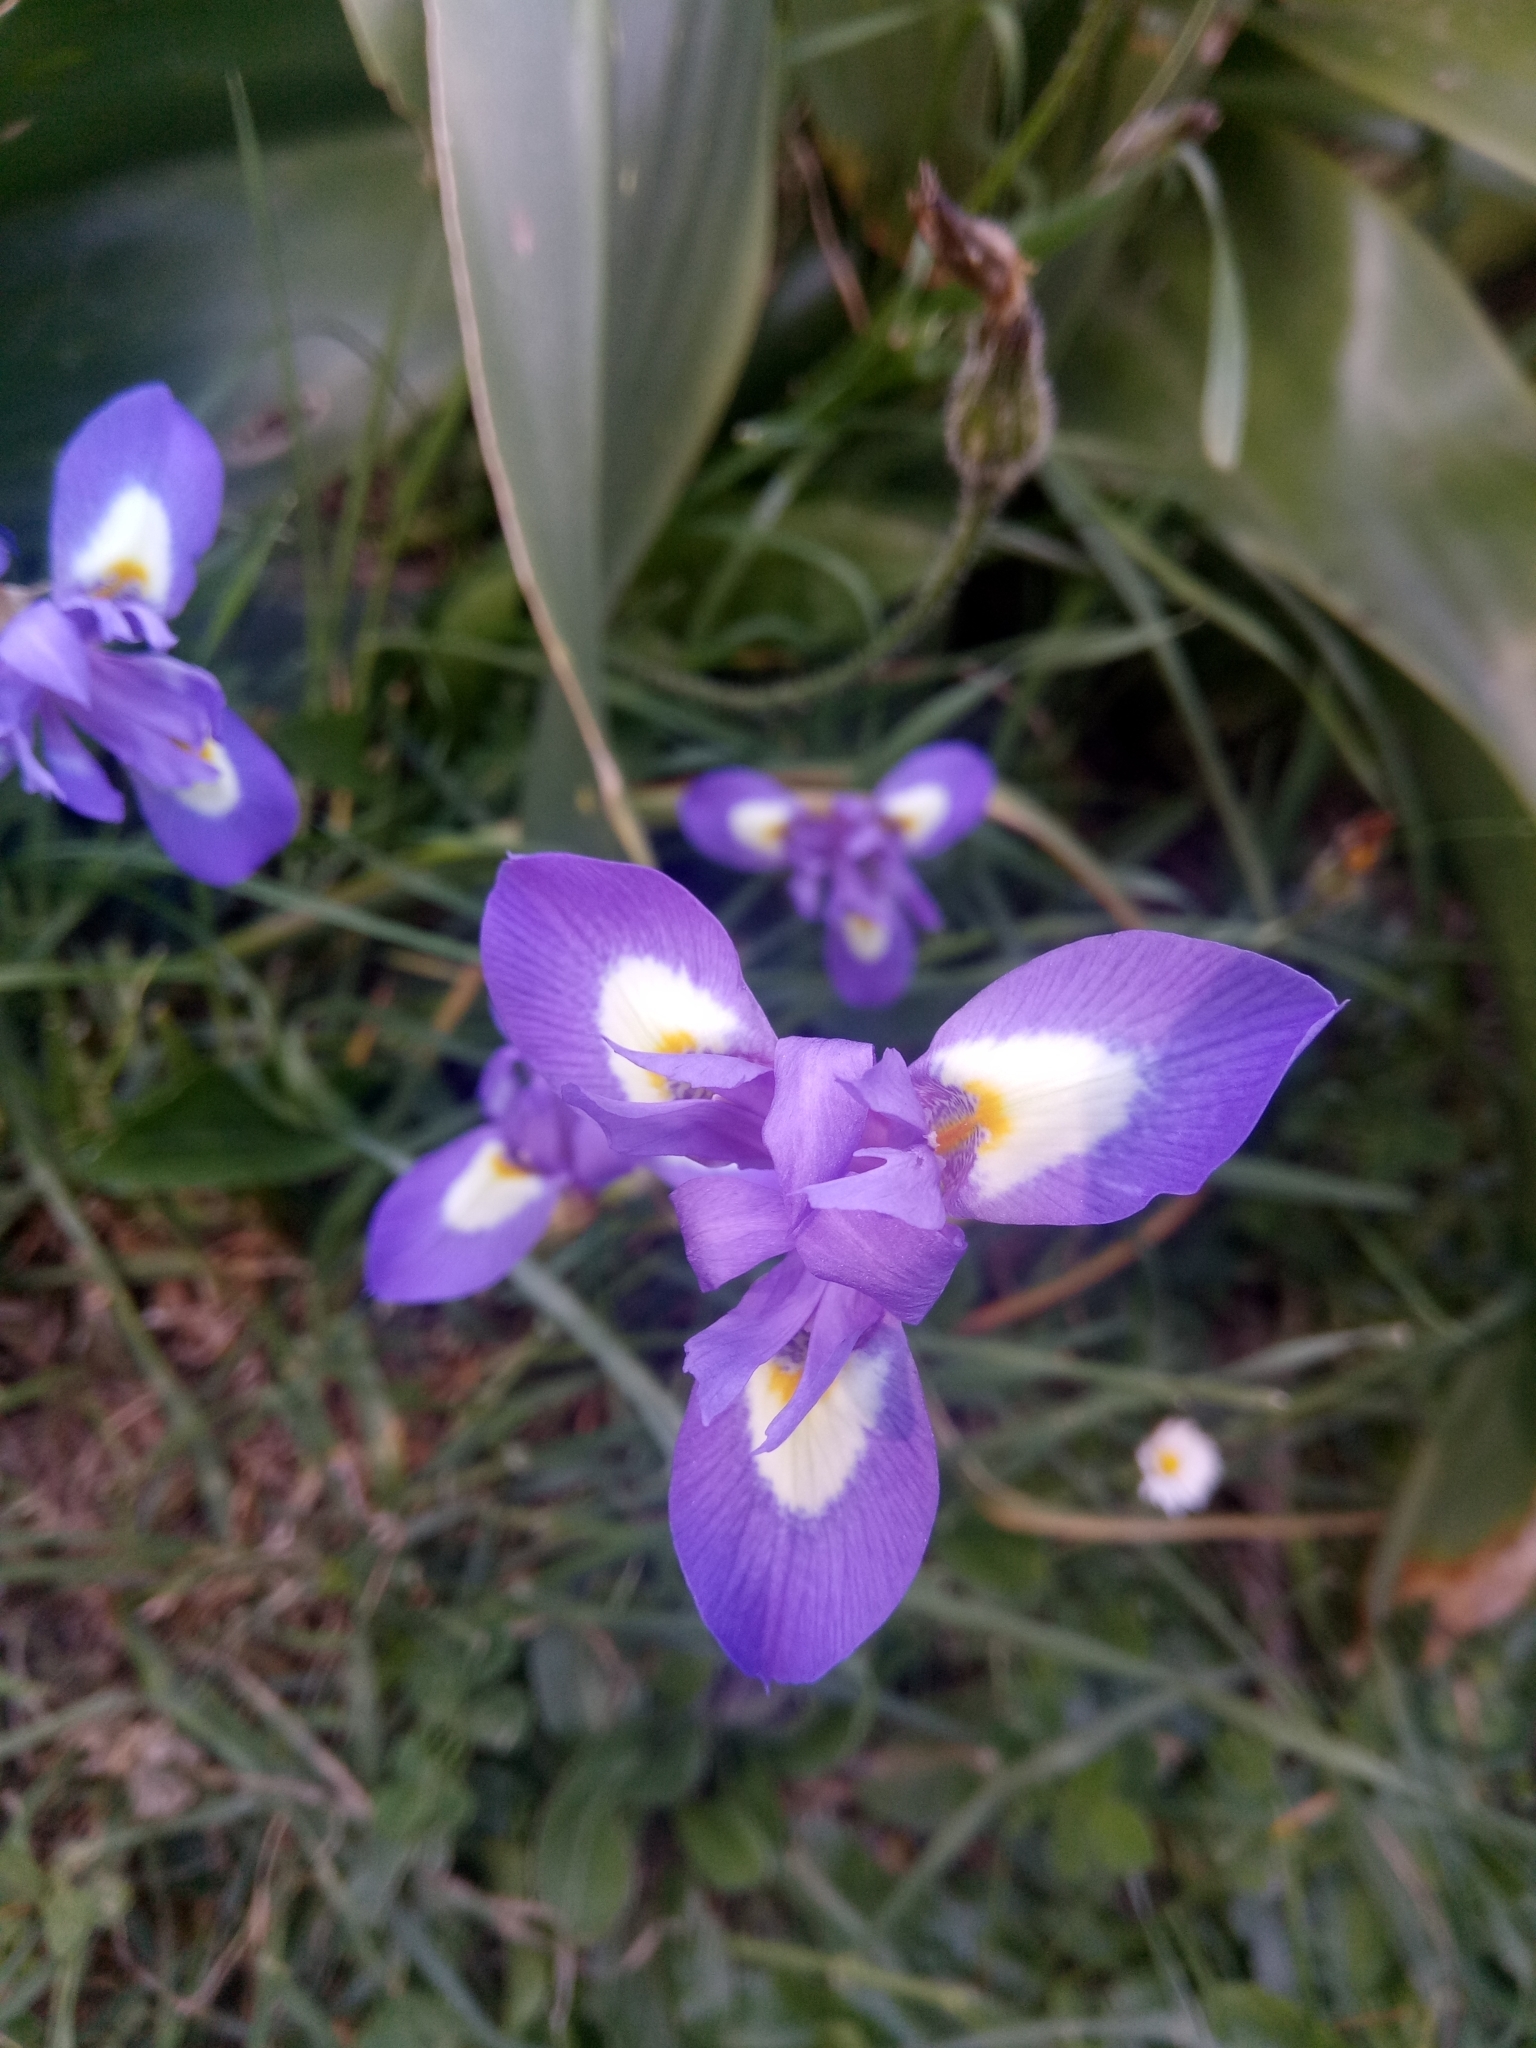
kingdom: Plantae
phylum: Tracheophyta
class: Liliopsida
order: Asparagales
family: Iridaceae
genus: Moraea
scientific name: Moraea sisyrinchium
